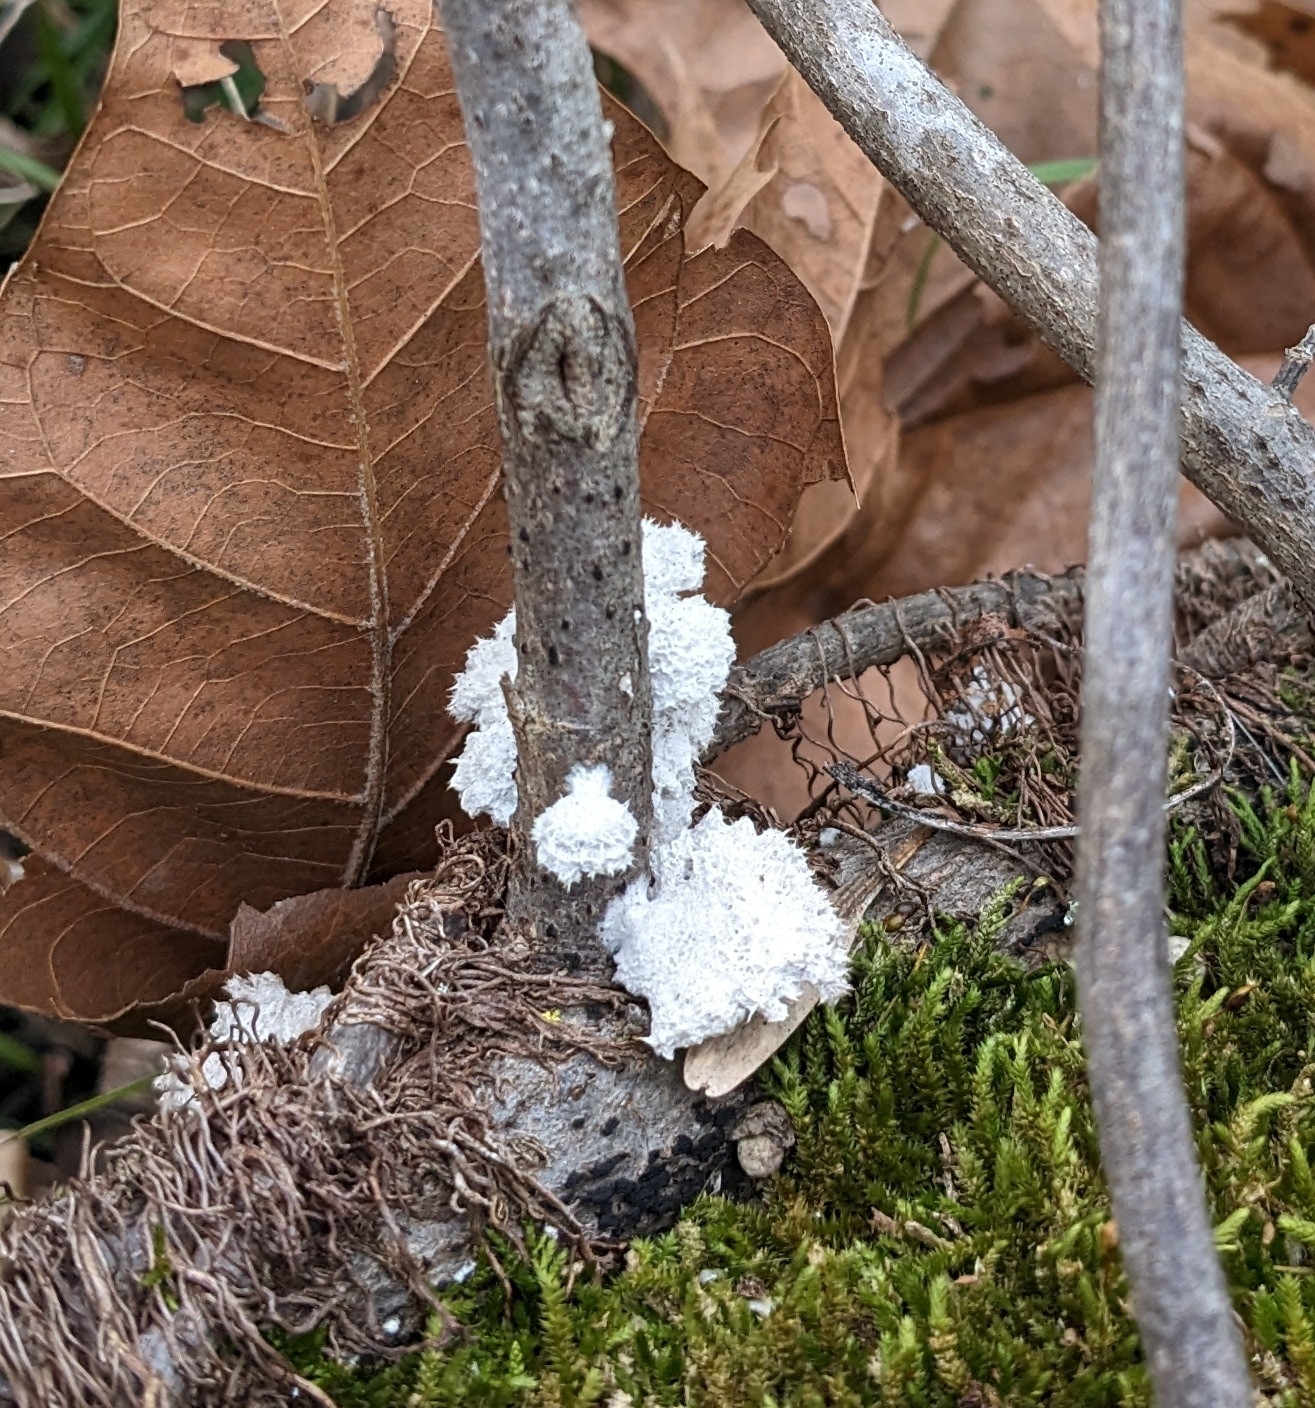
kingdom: Fungi
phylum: Basidiomycota
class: Agaricomycetes
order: Agaricales
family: Schizophyllaceae
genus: Schizophyllum
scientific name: Schizophyllum commune
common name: Common porecrust
